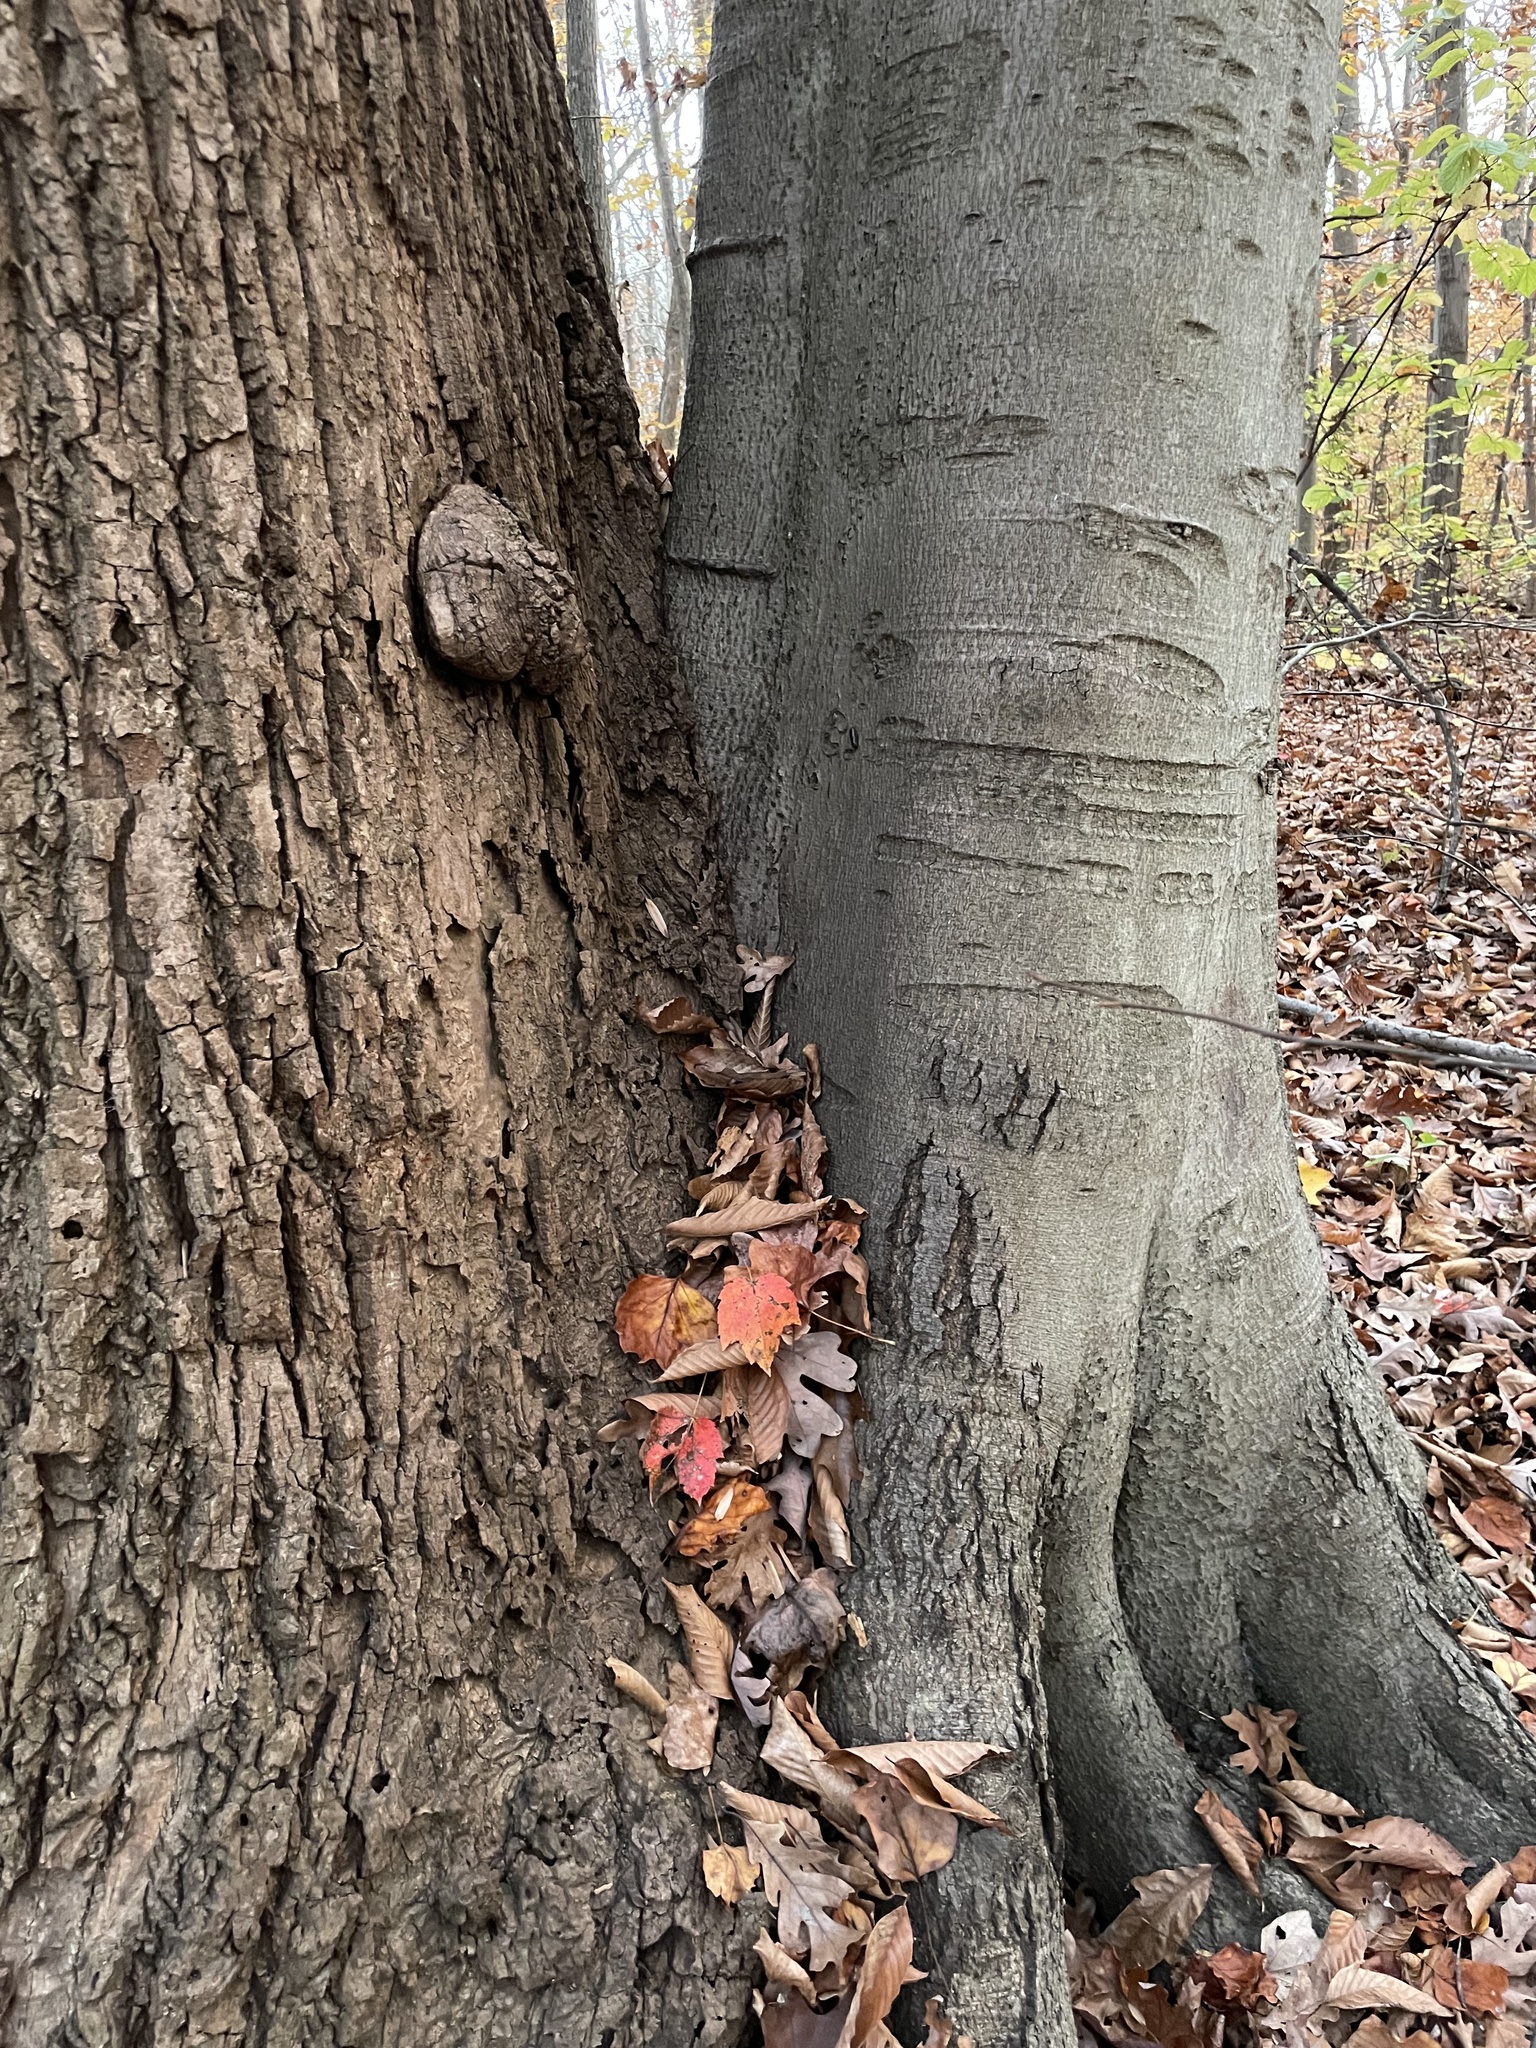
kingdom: Plantae
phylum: Tracheophyta
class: Magnoliopsida
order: Fagales
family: Fagaceae
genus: Fagus
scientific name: Fagus grandifolia
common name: American beech
